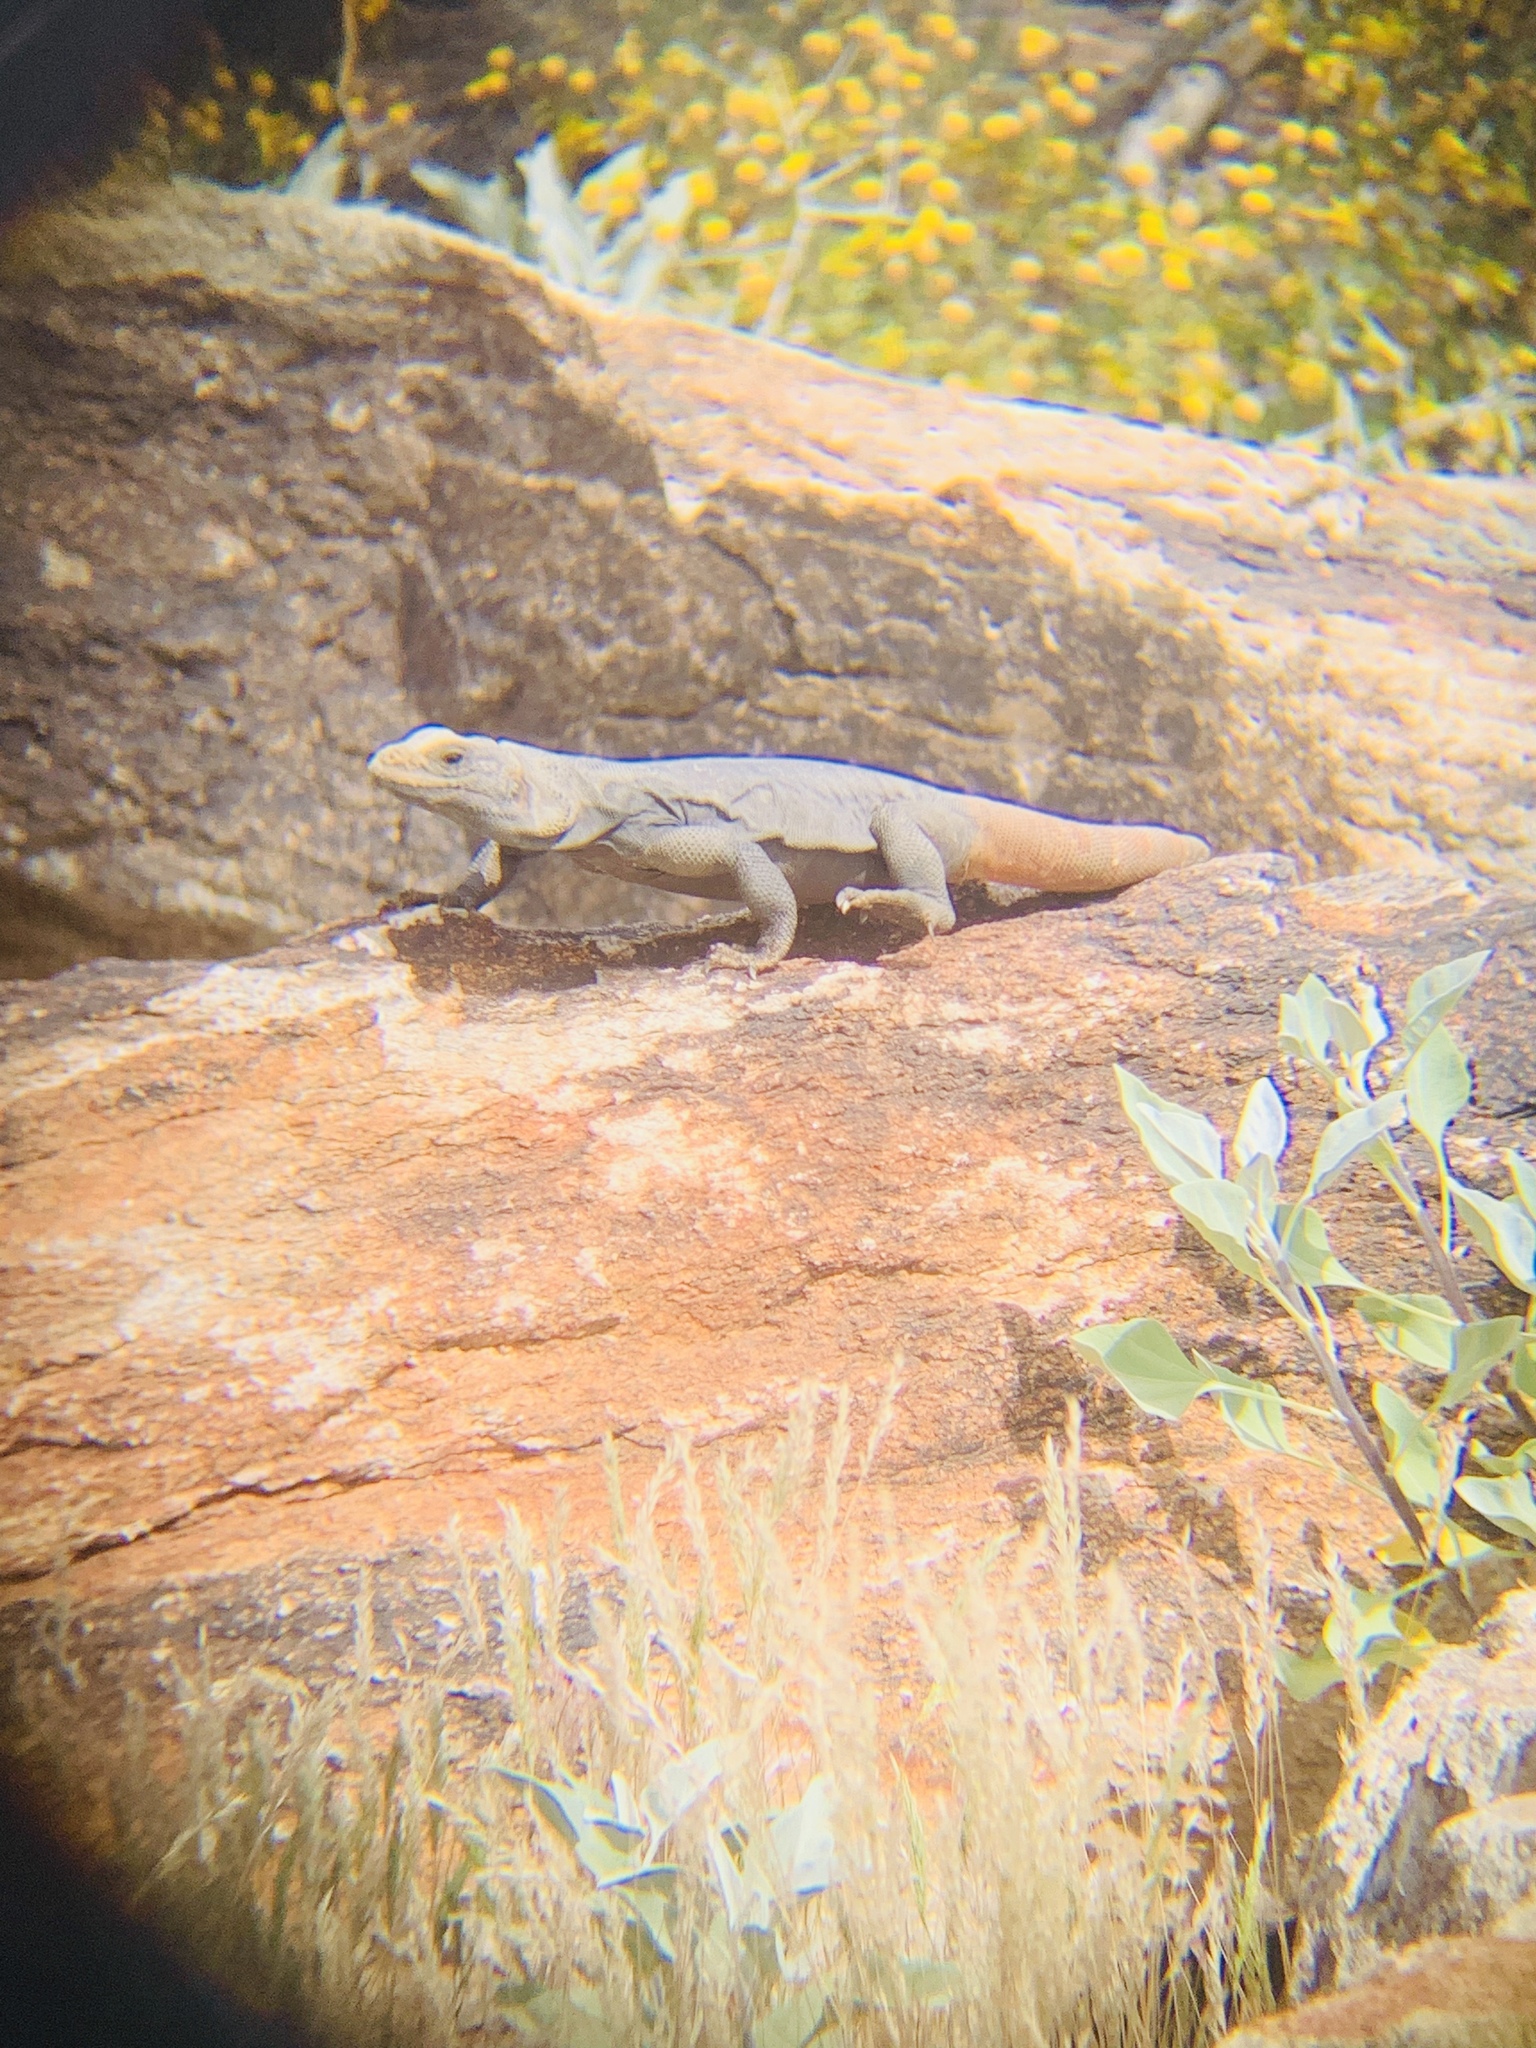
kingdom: Animalia
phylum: Chordata
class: Squamata
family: Iguanidae
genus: Sauromalus
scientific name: Sauromalus ater
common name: Northern chuckwalla
